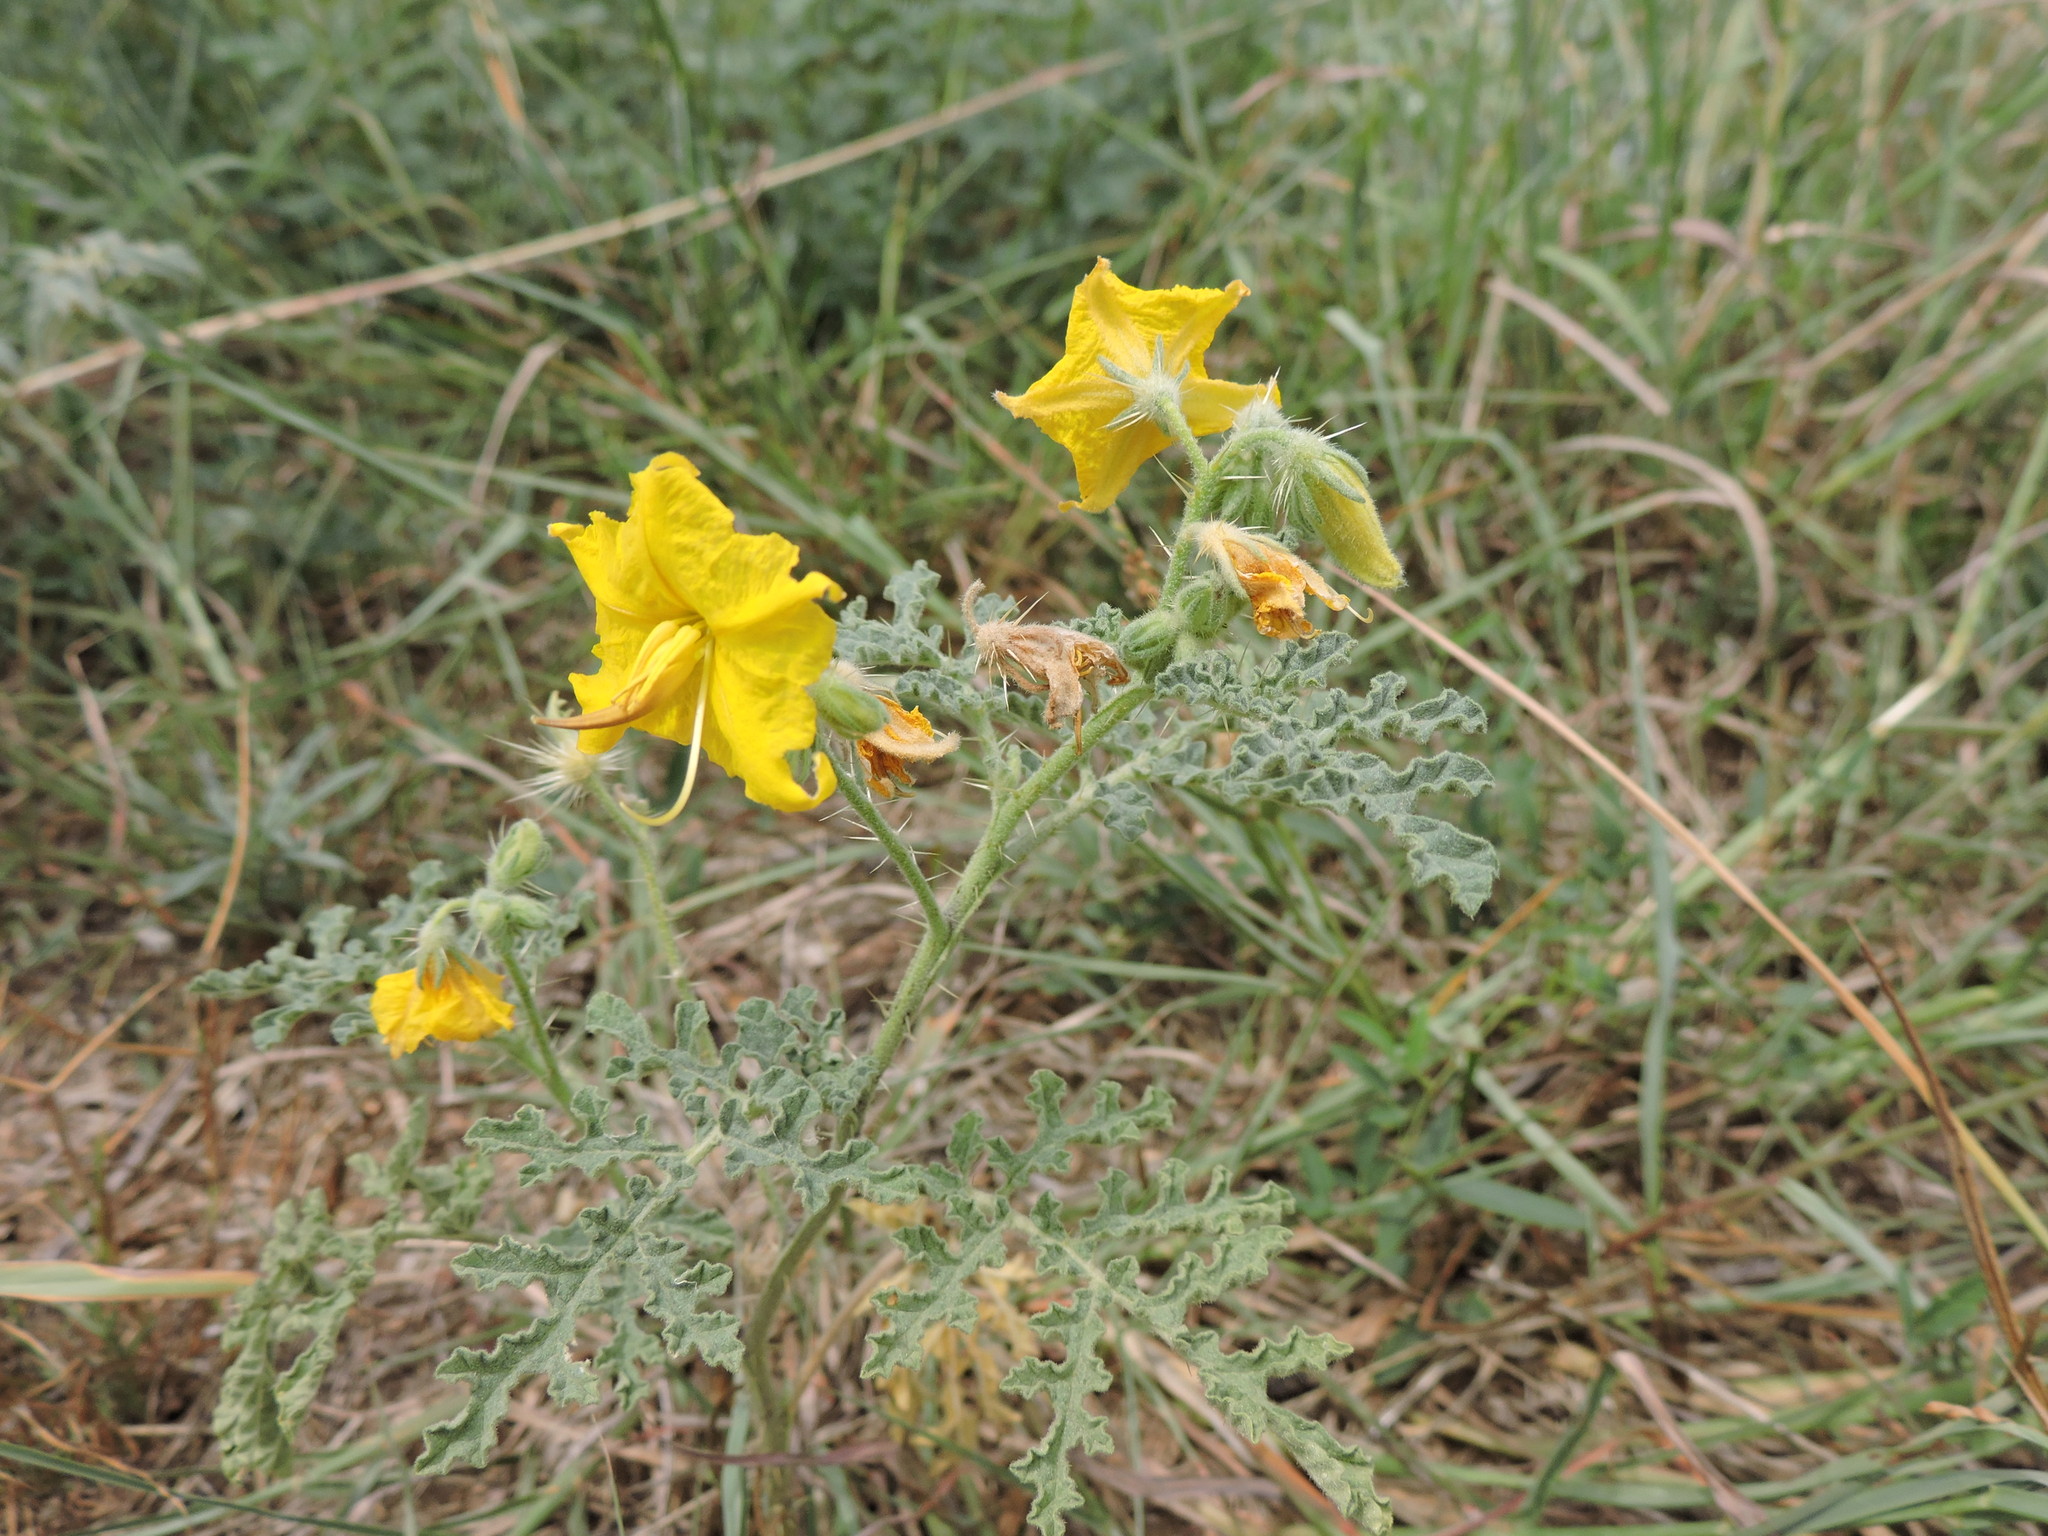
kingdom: Plantae
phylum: Tracheophyta
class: Magnoliopsida
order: Solanales
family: Solanaceae
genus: Solanum
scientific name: Solanum angustifolium
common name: Buffalobur nightshade
